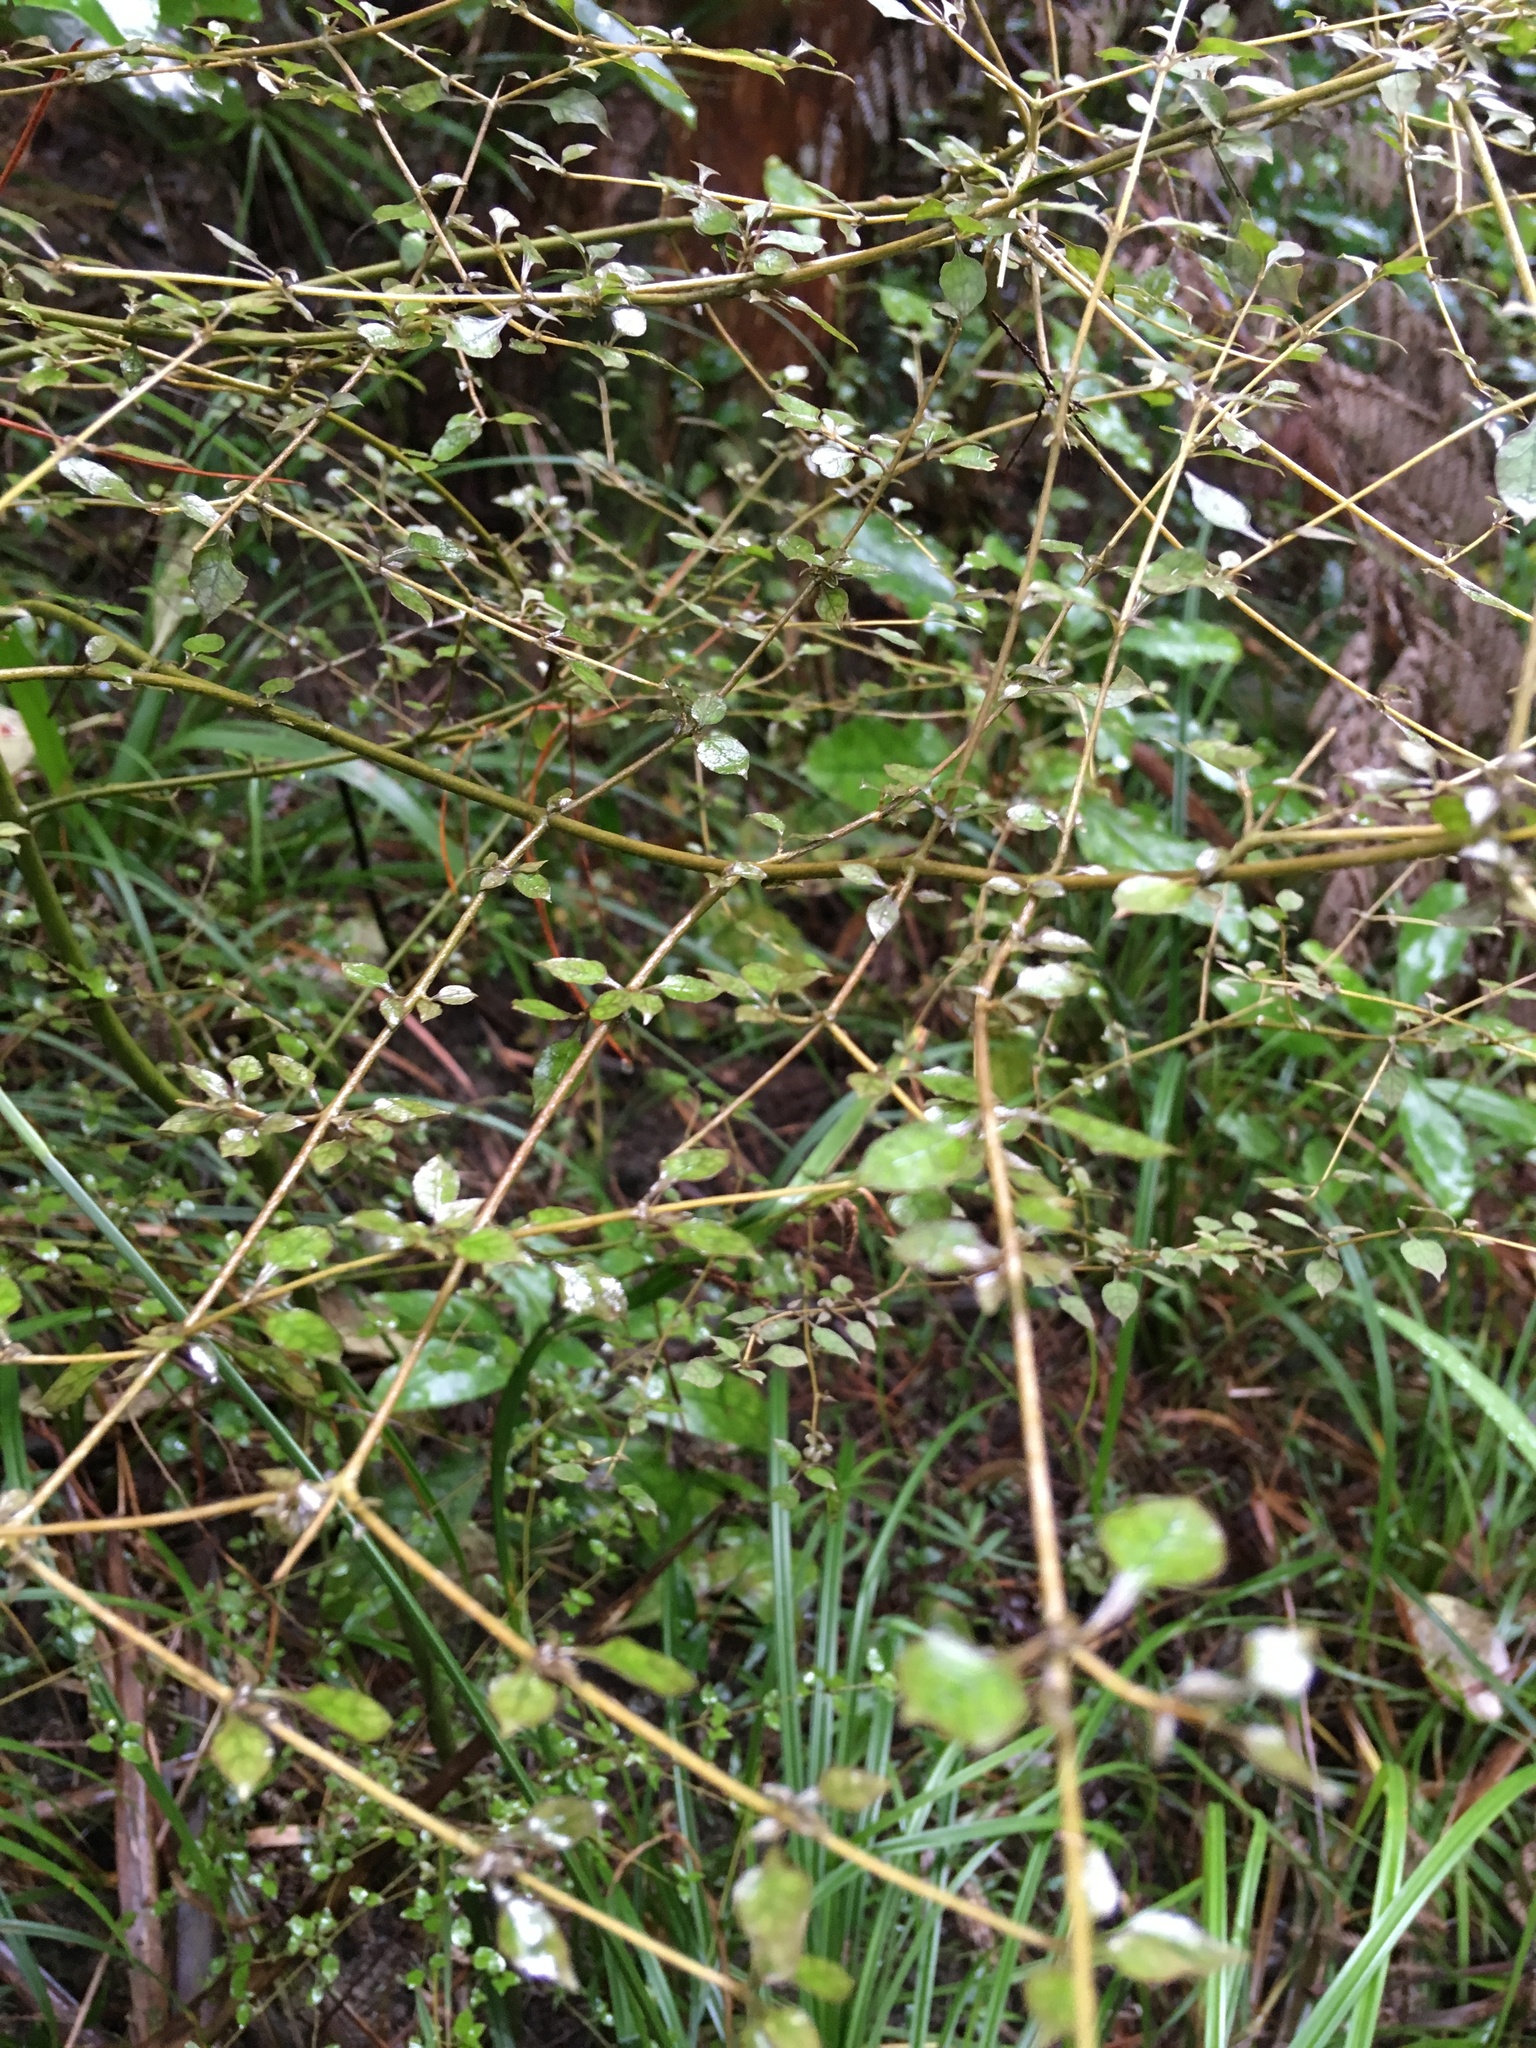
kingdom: Plantae
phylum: Tracheophyta
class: Magnoliopsida
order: Gentianales
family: Rubiaceae
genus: Coprosma
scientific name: Coprosma areolata
